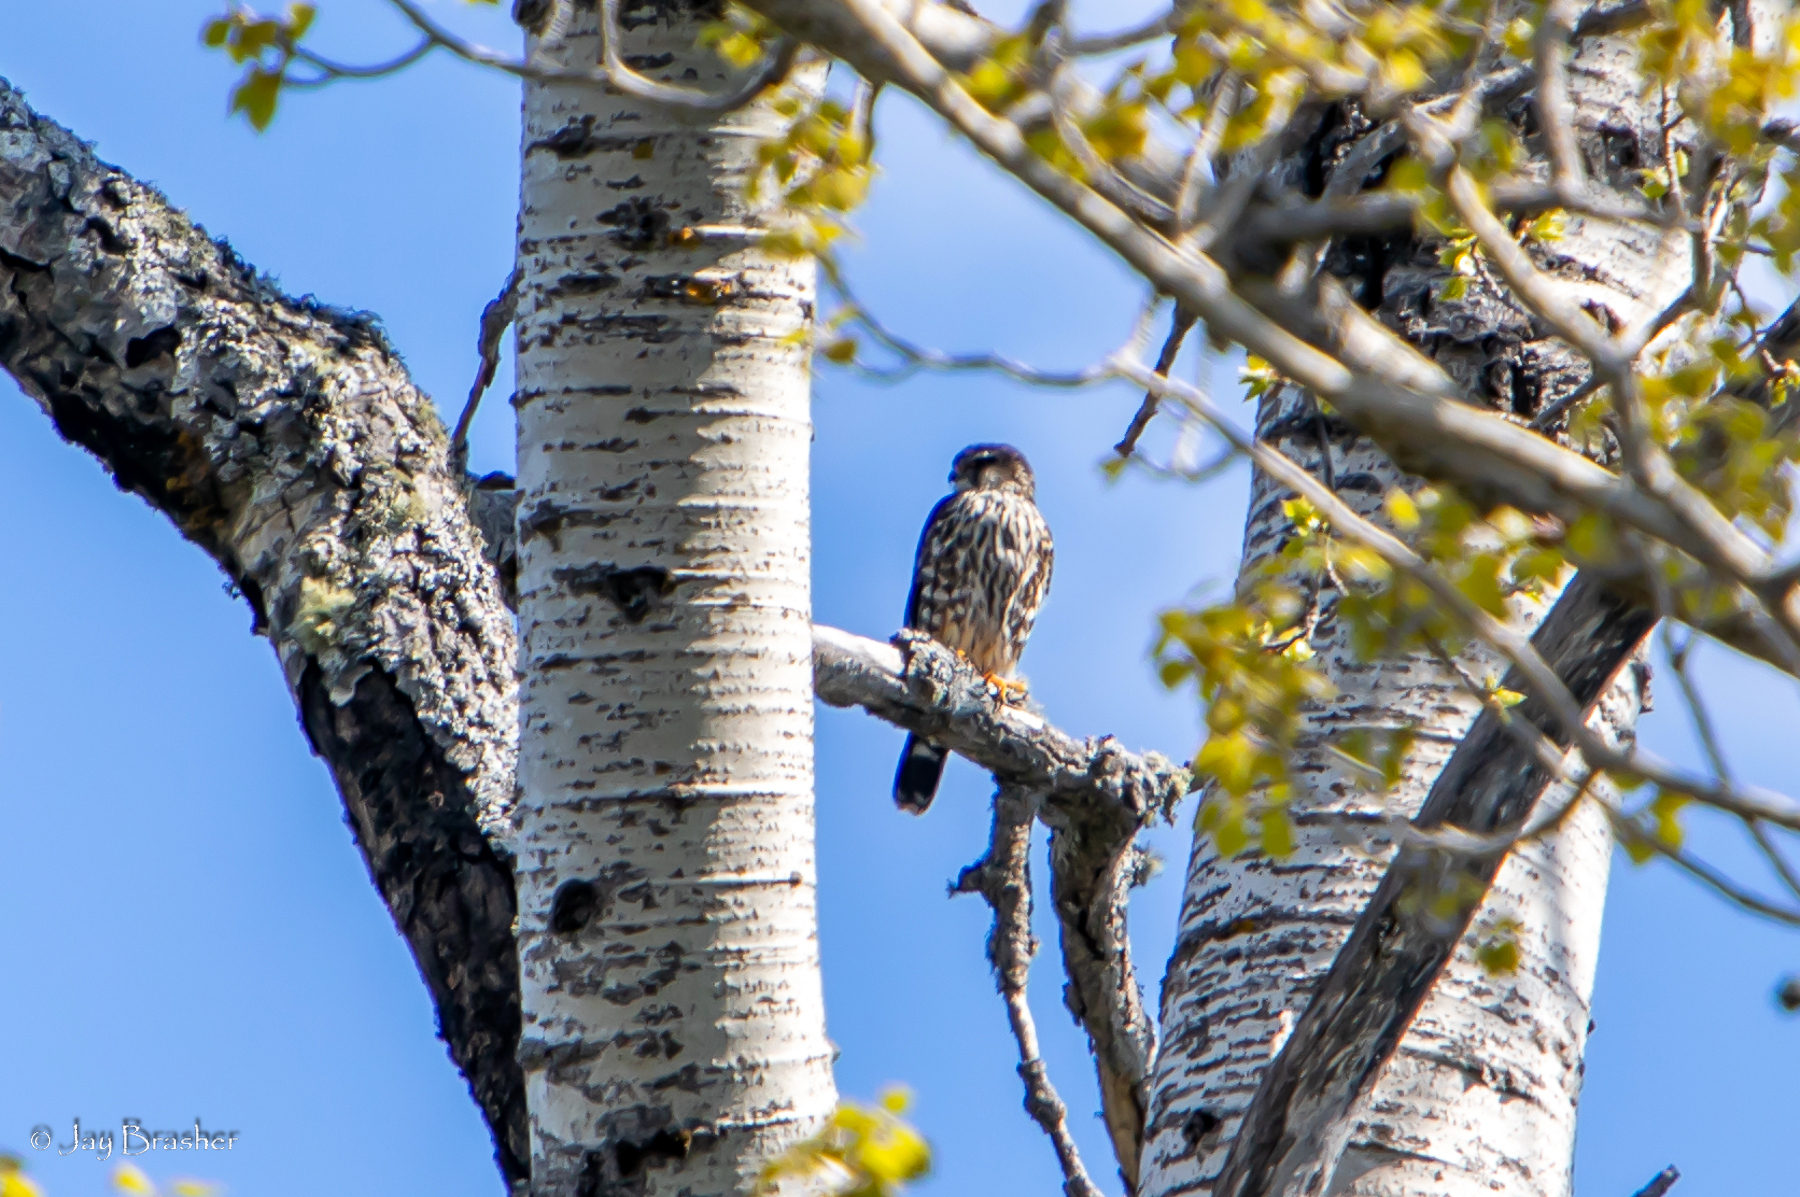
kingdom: Animalia
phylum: Chordata
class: Aves
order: Falconiformes
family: Falconidae
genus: Falco
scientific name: Falco columbarius
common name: Merlin
